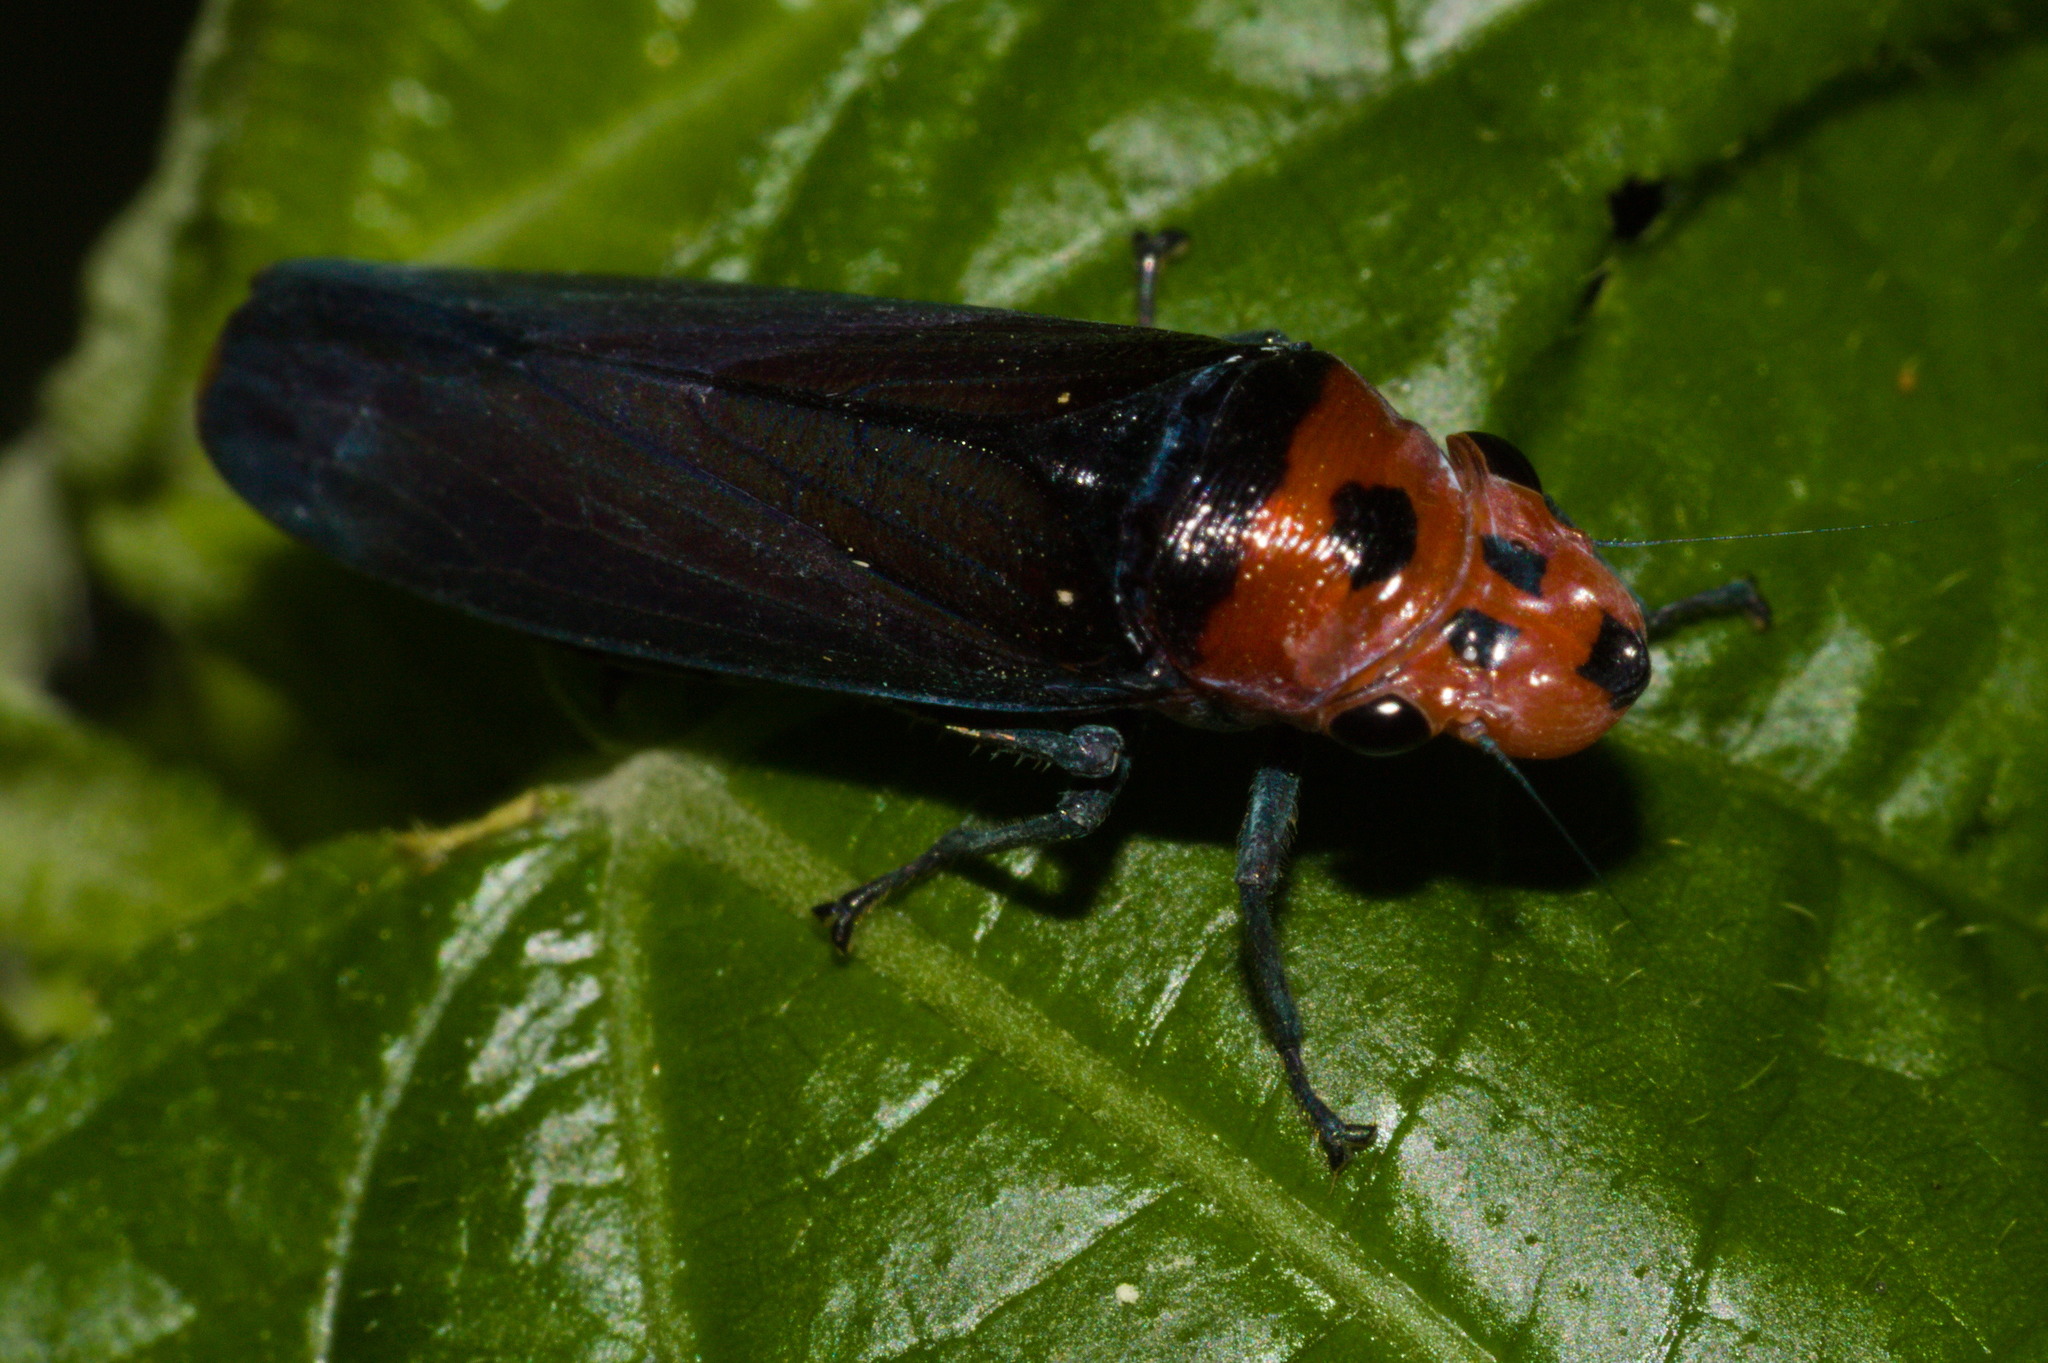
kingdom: Animalia
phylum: Arthropoda
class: Insecta
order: Hemiptera
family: Cicadellidae
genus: Aulacizes
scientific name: Aulacizes quadripunctata
